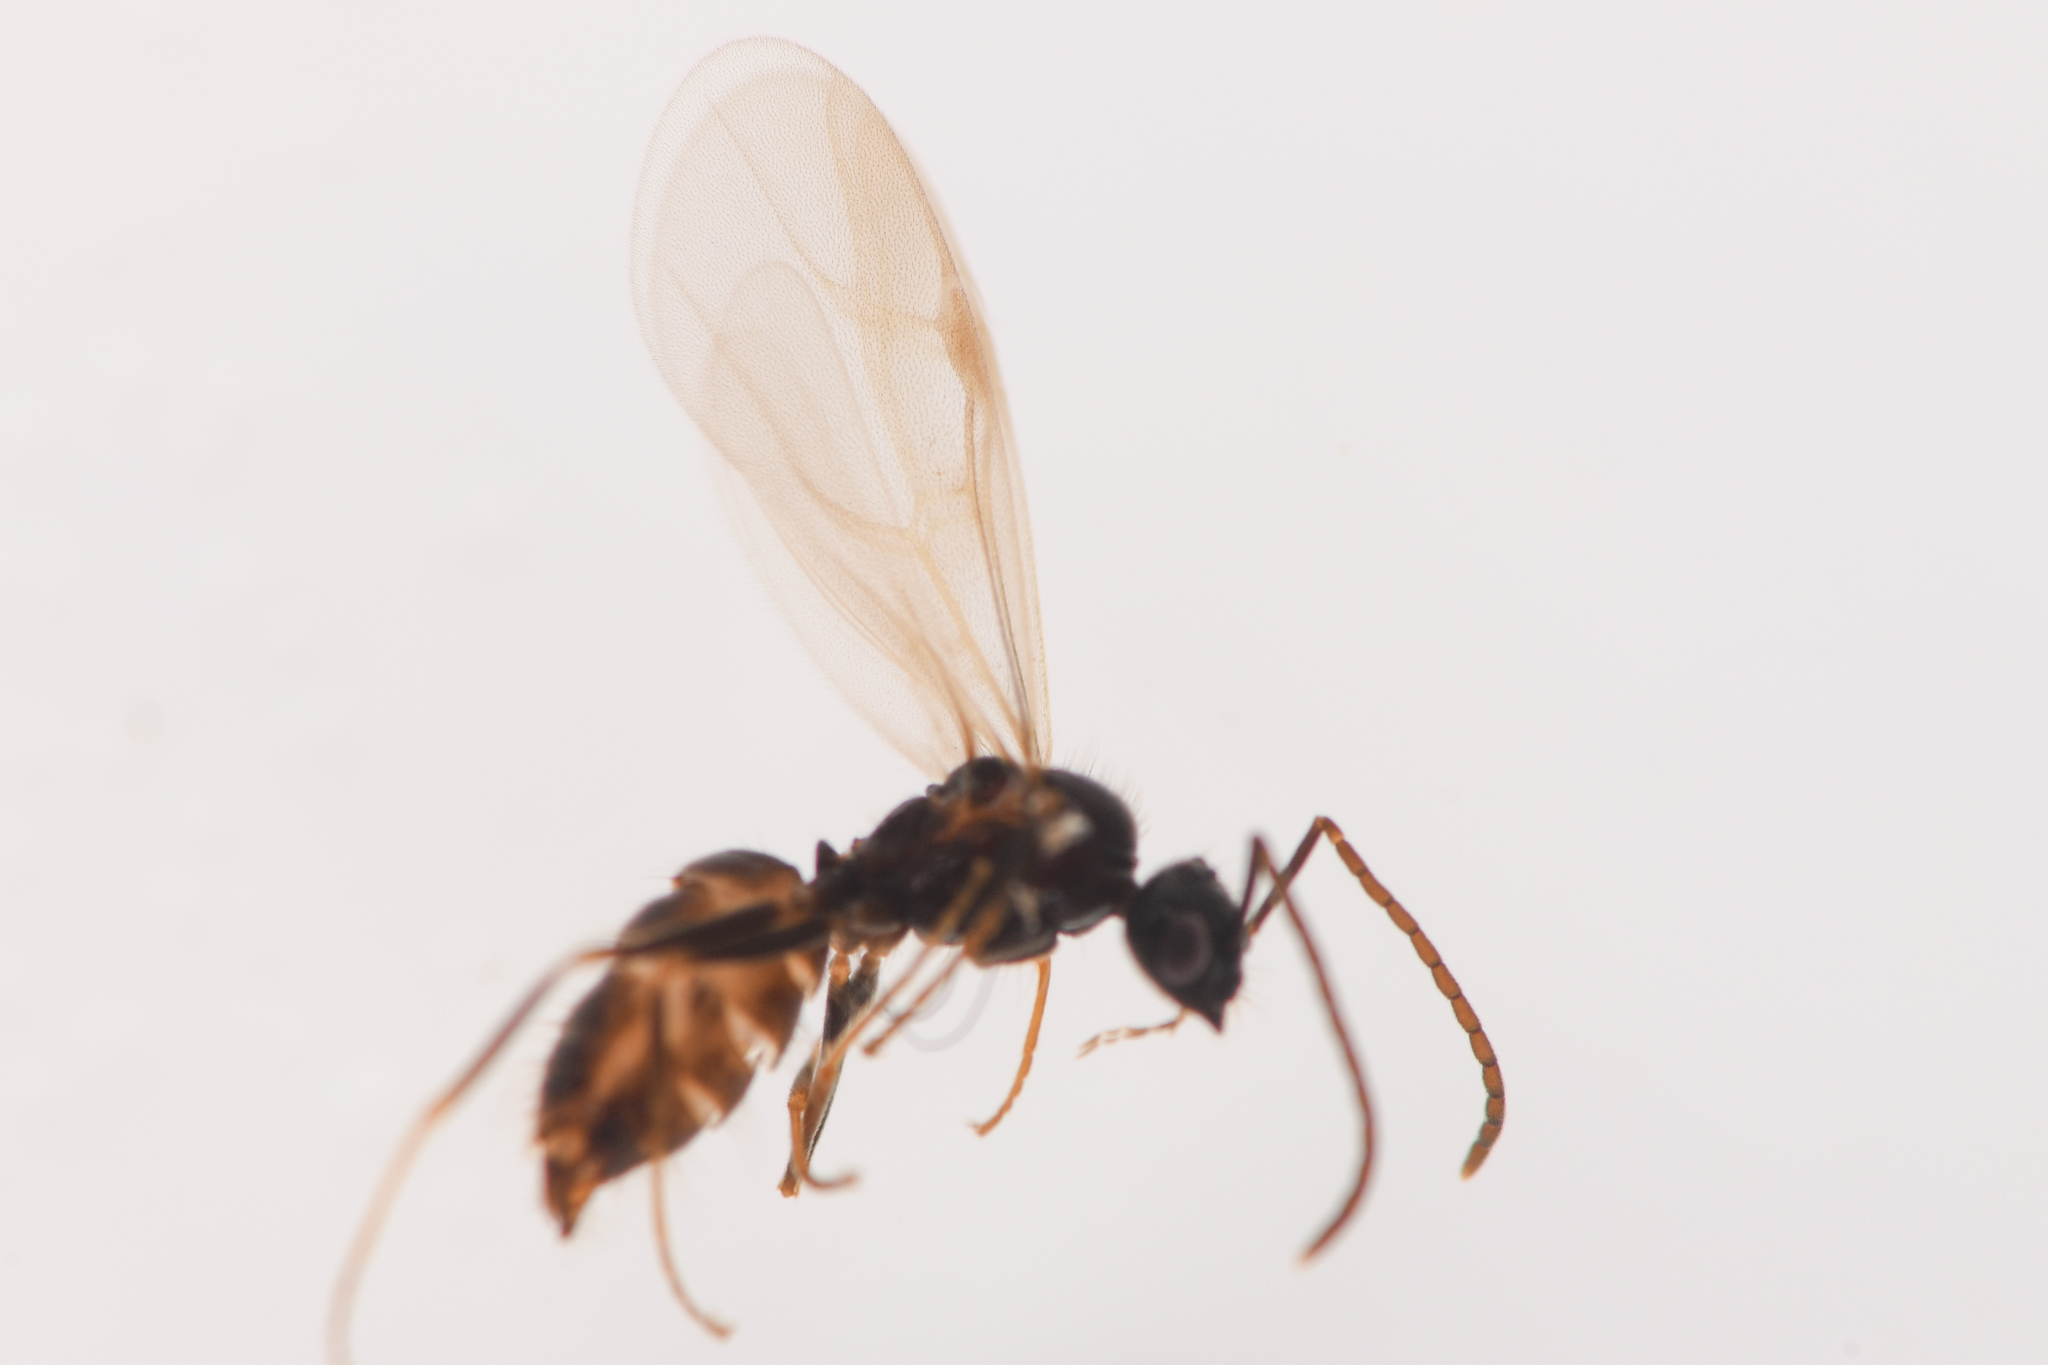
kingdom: Animalia
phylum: Arthropoda
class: Insecta
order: Hymenoptera
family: Formicidae
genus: Prenolepis
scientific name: Prenolepis imparis
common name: Small honey ant
